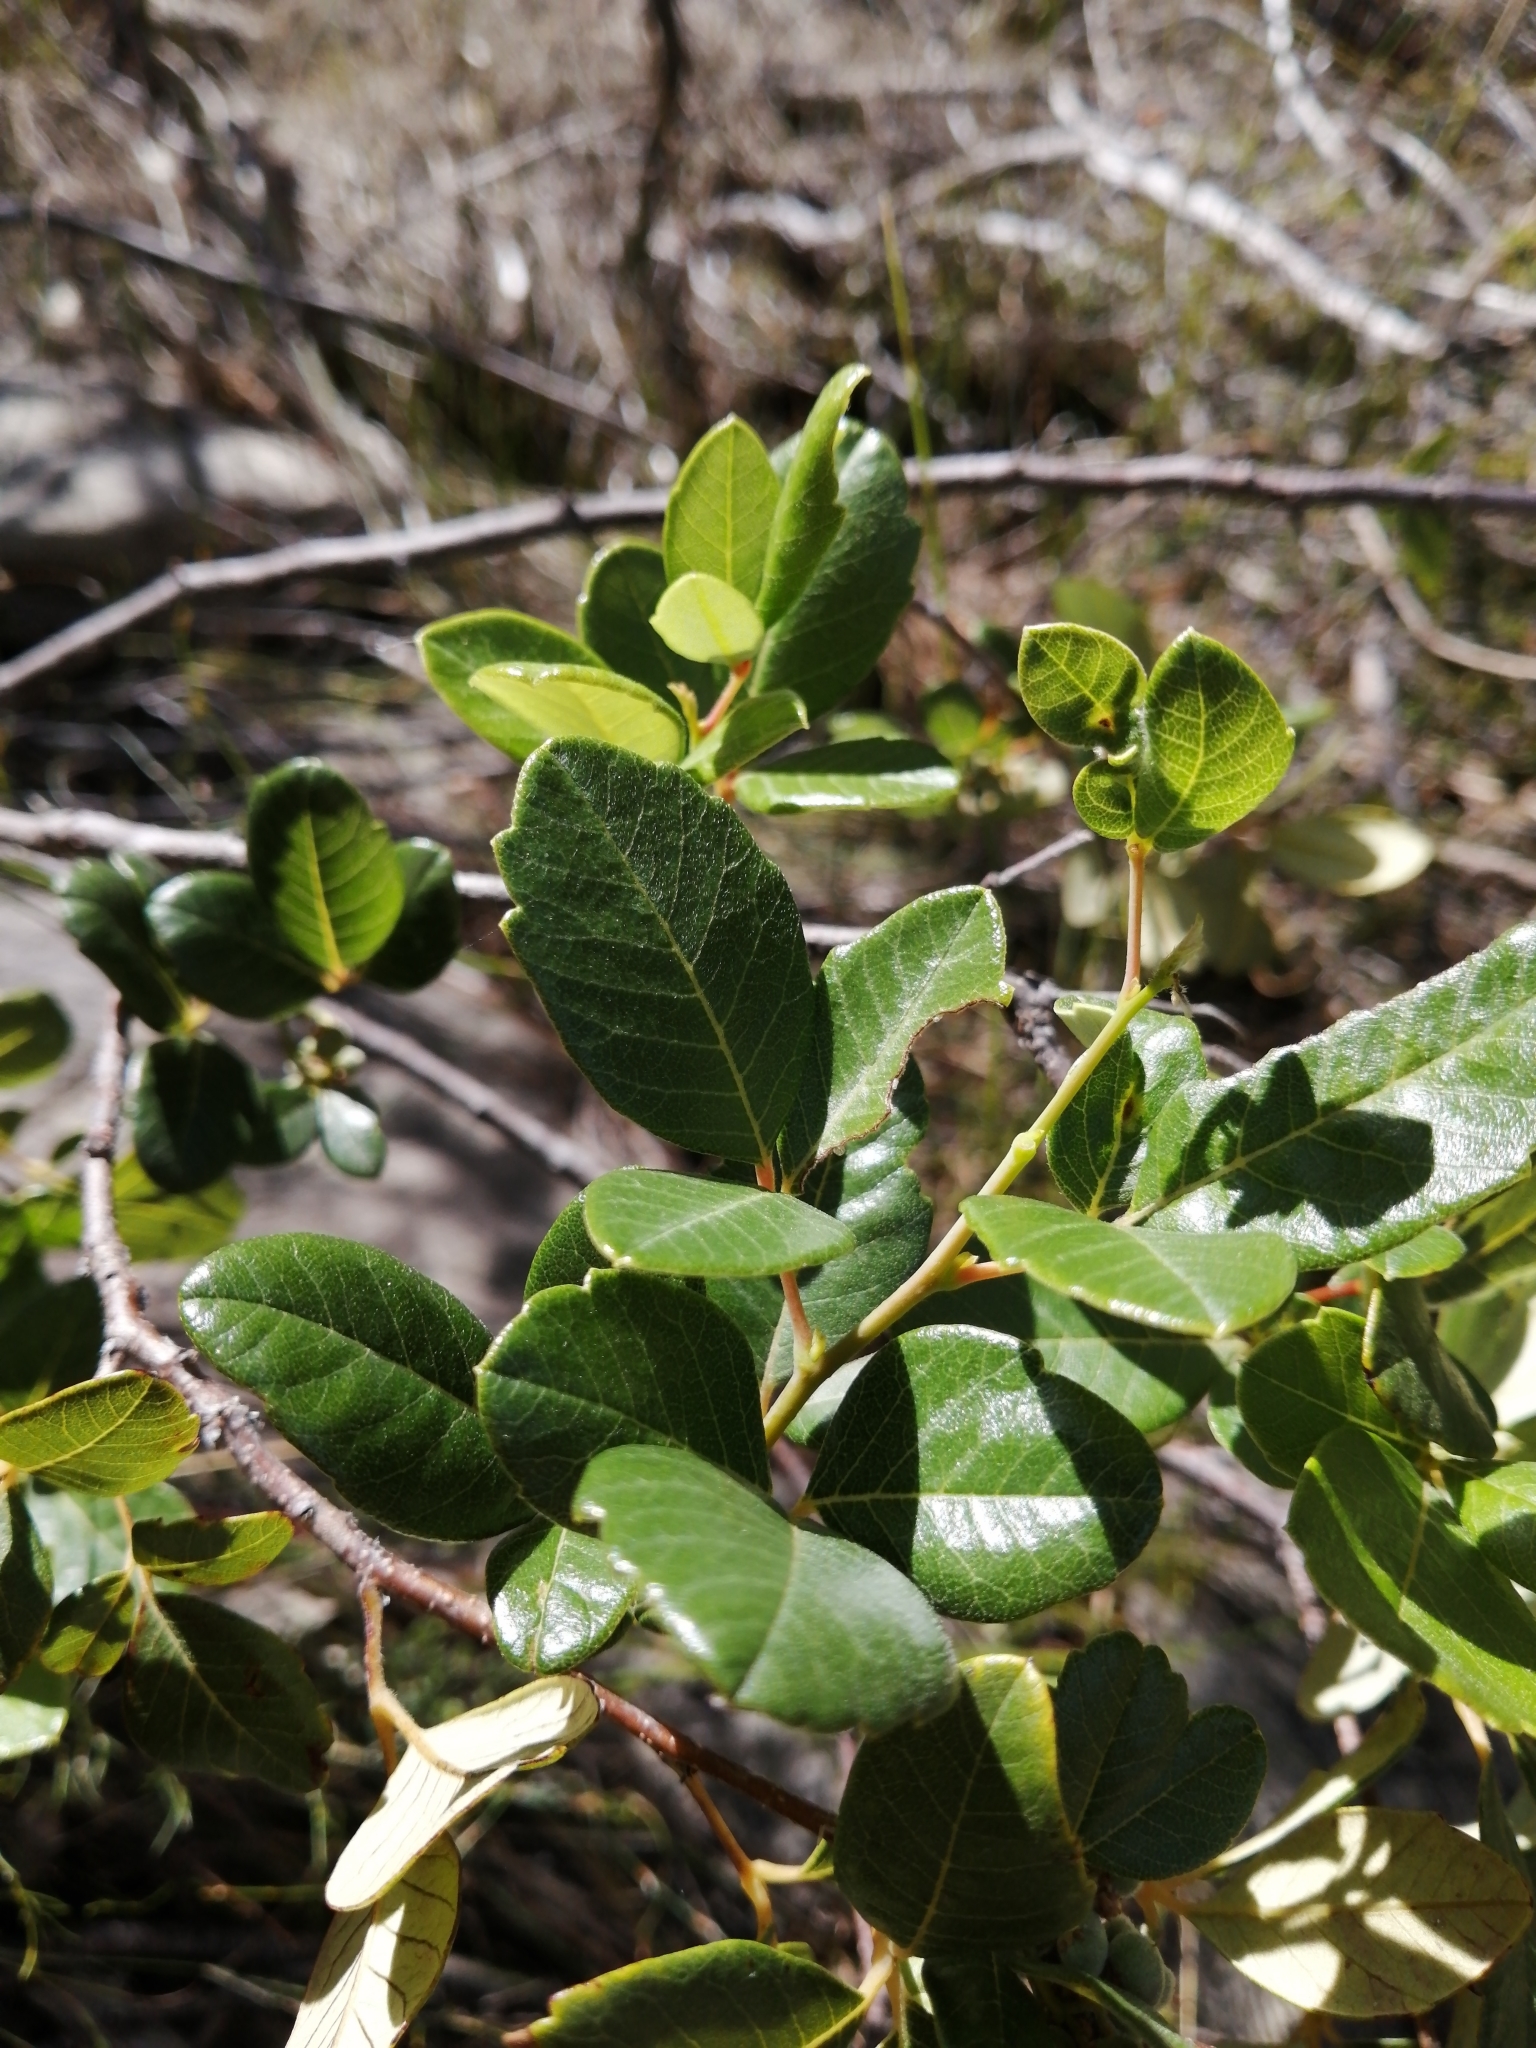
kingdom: Plantae
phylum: Tracheophyta
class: Magnoliopsida
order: Sapindales
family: Anacardiaceae
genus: Searsia
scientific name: Searsia tomentosa
